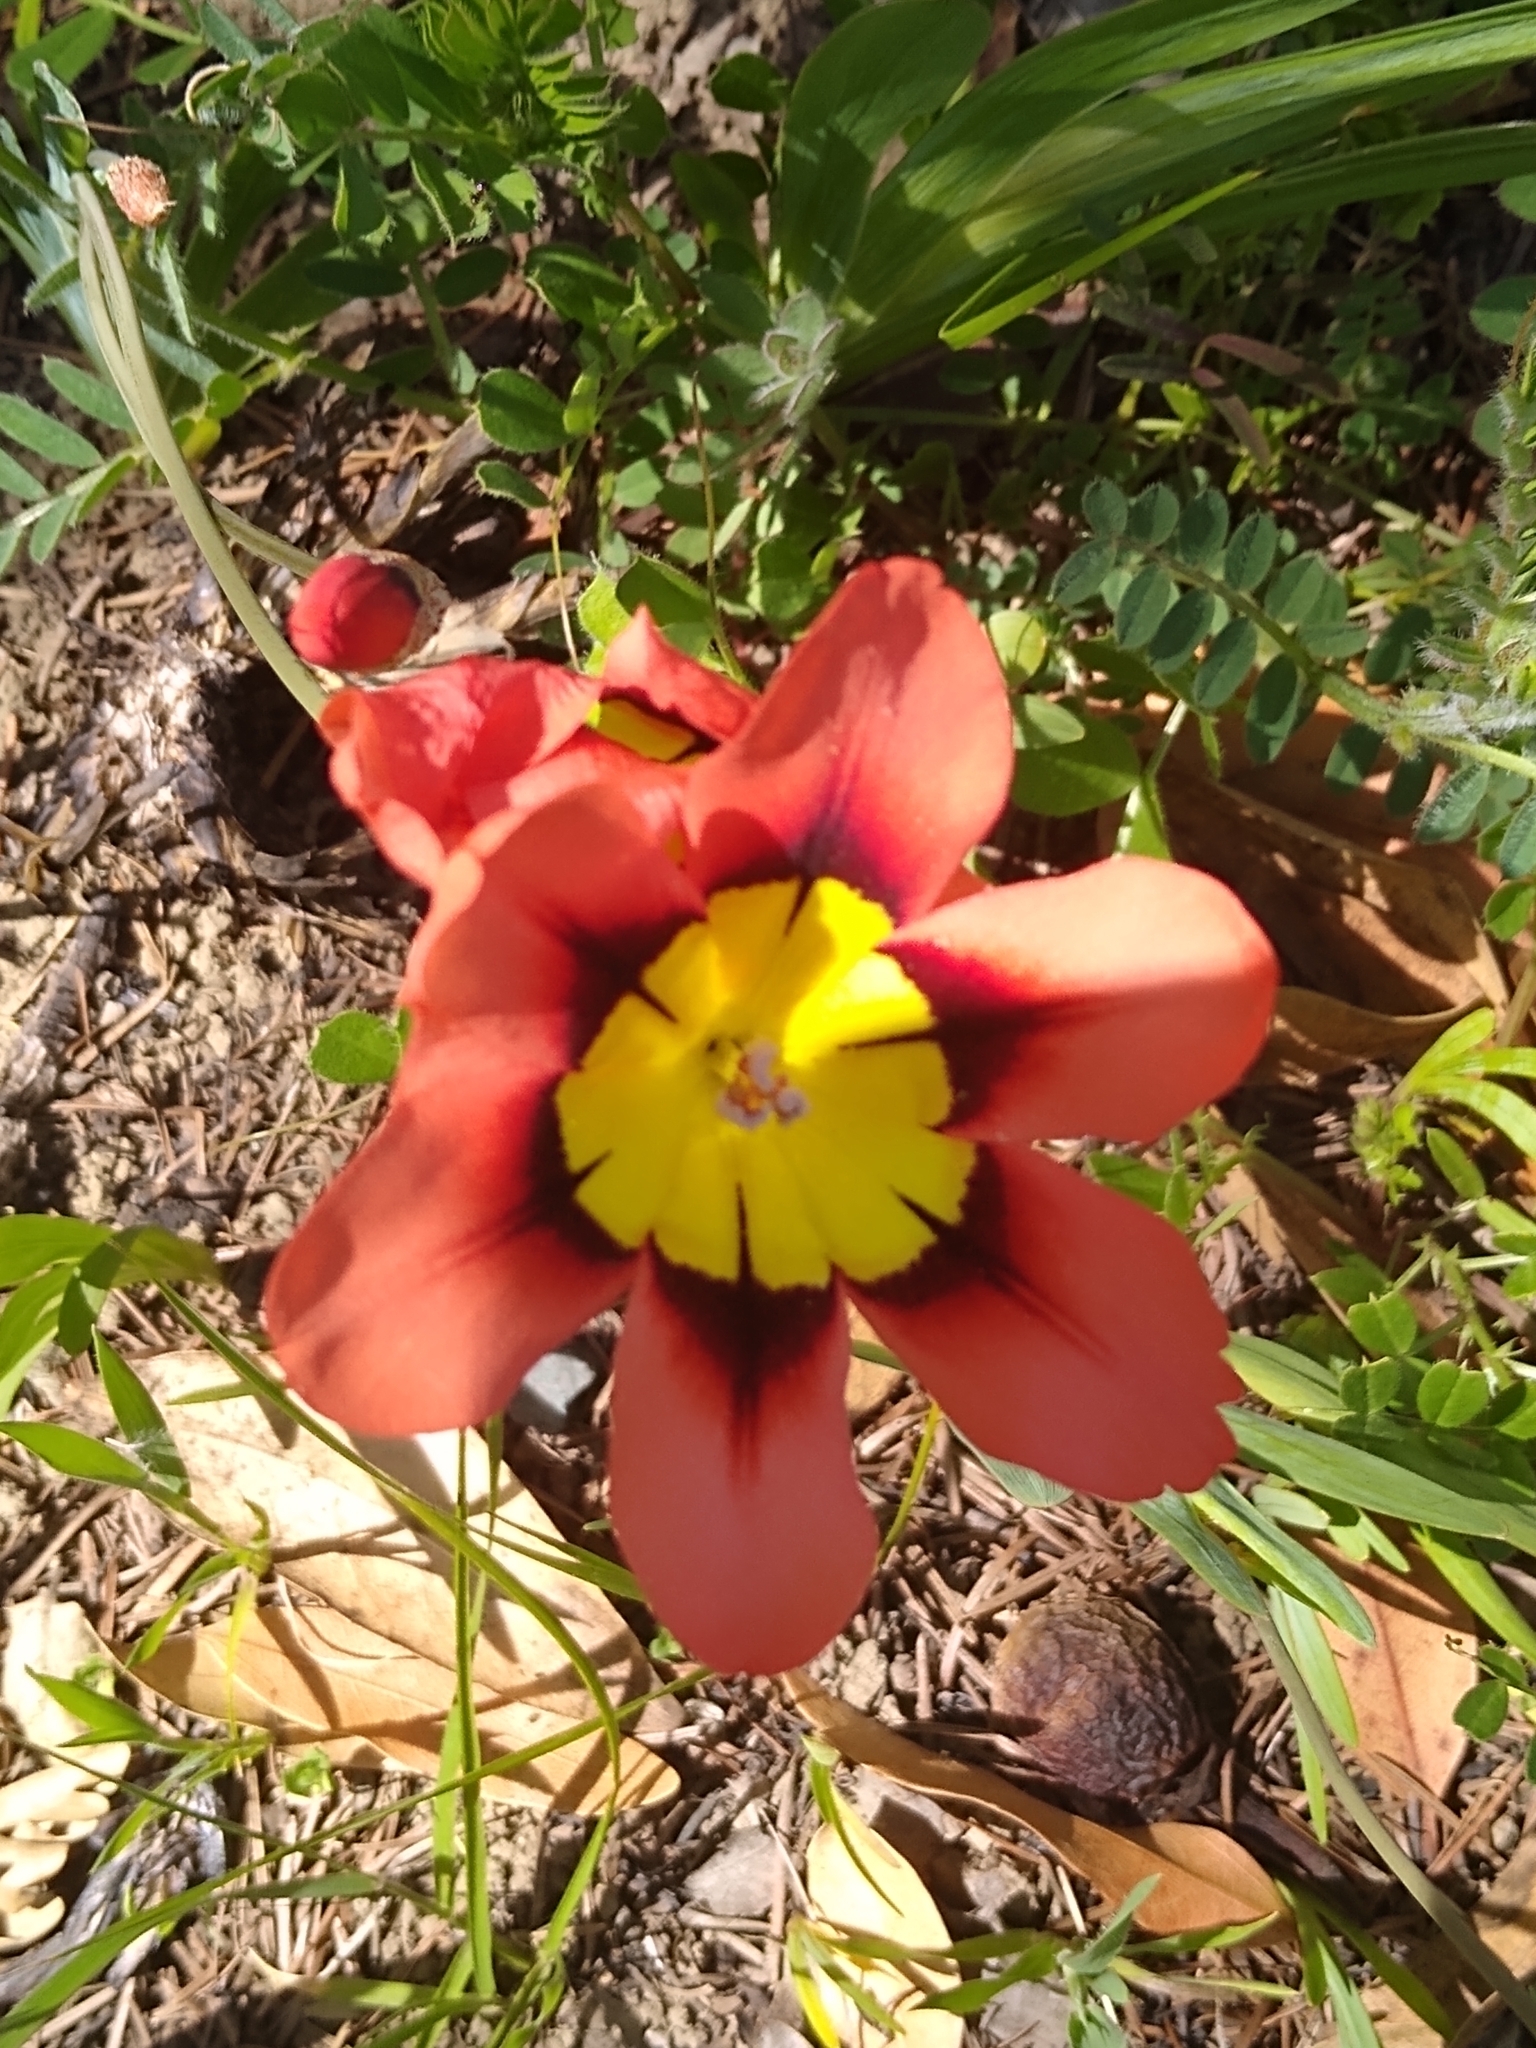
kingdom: Plantae
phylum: Tracheophyta
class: Liliopsida
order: Asparagales
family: Iridaceae
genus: Sparaxis
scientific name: Sparaxis tricolor
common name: Wandflower
